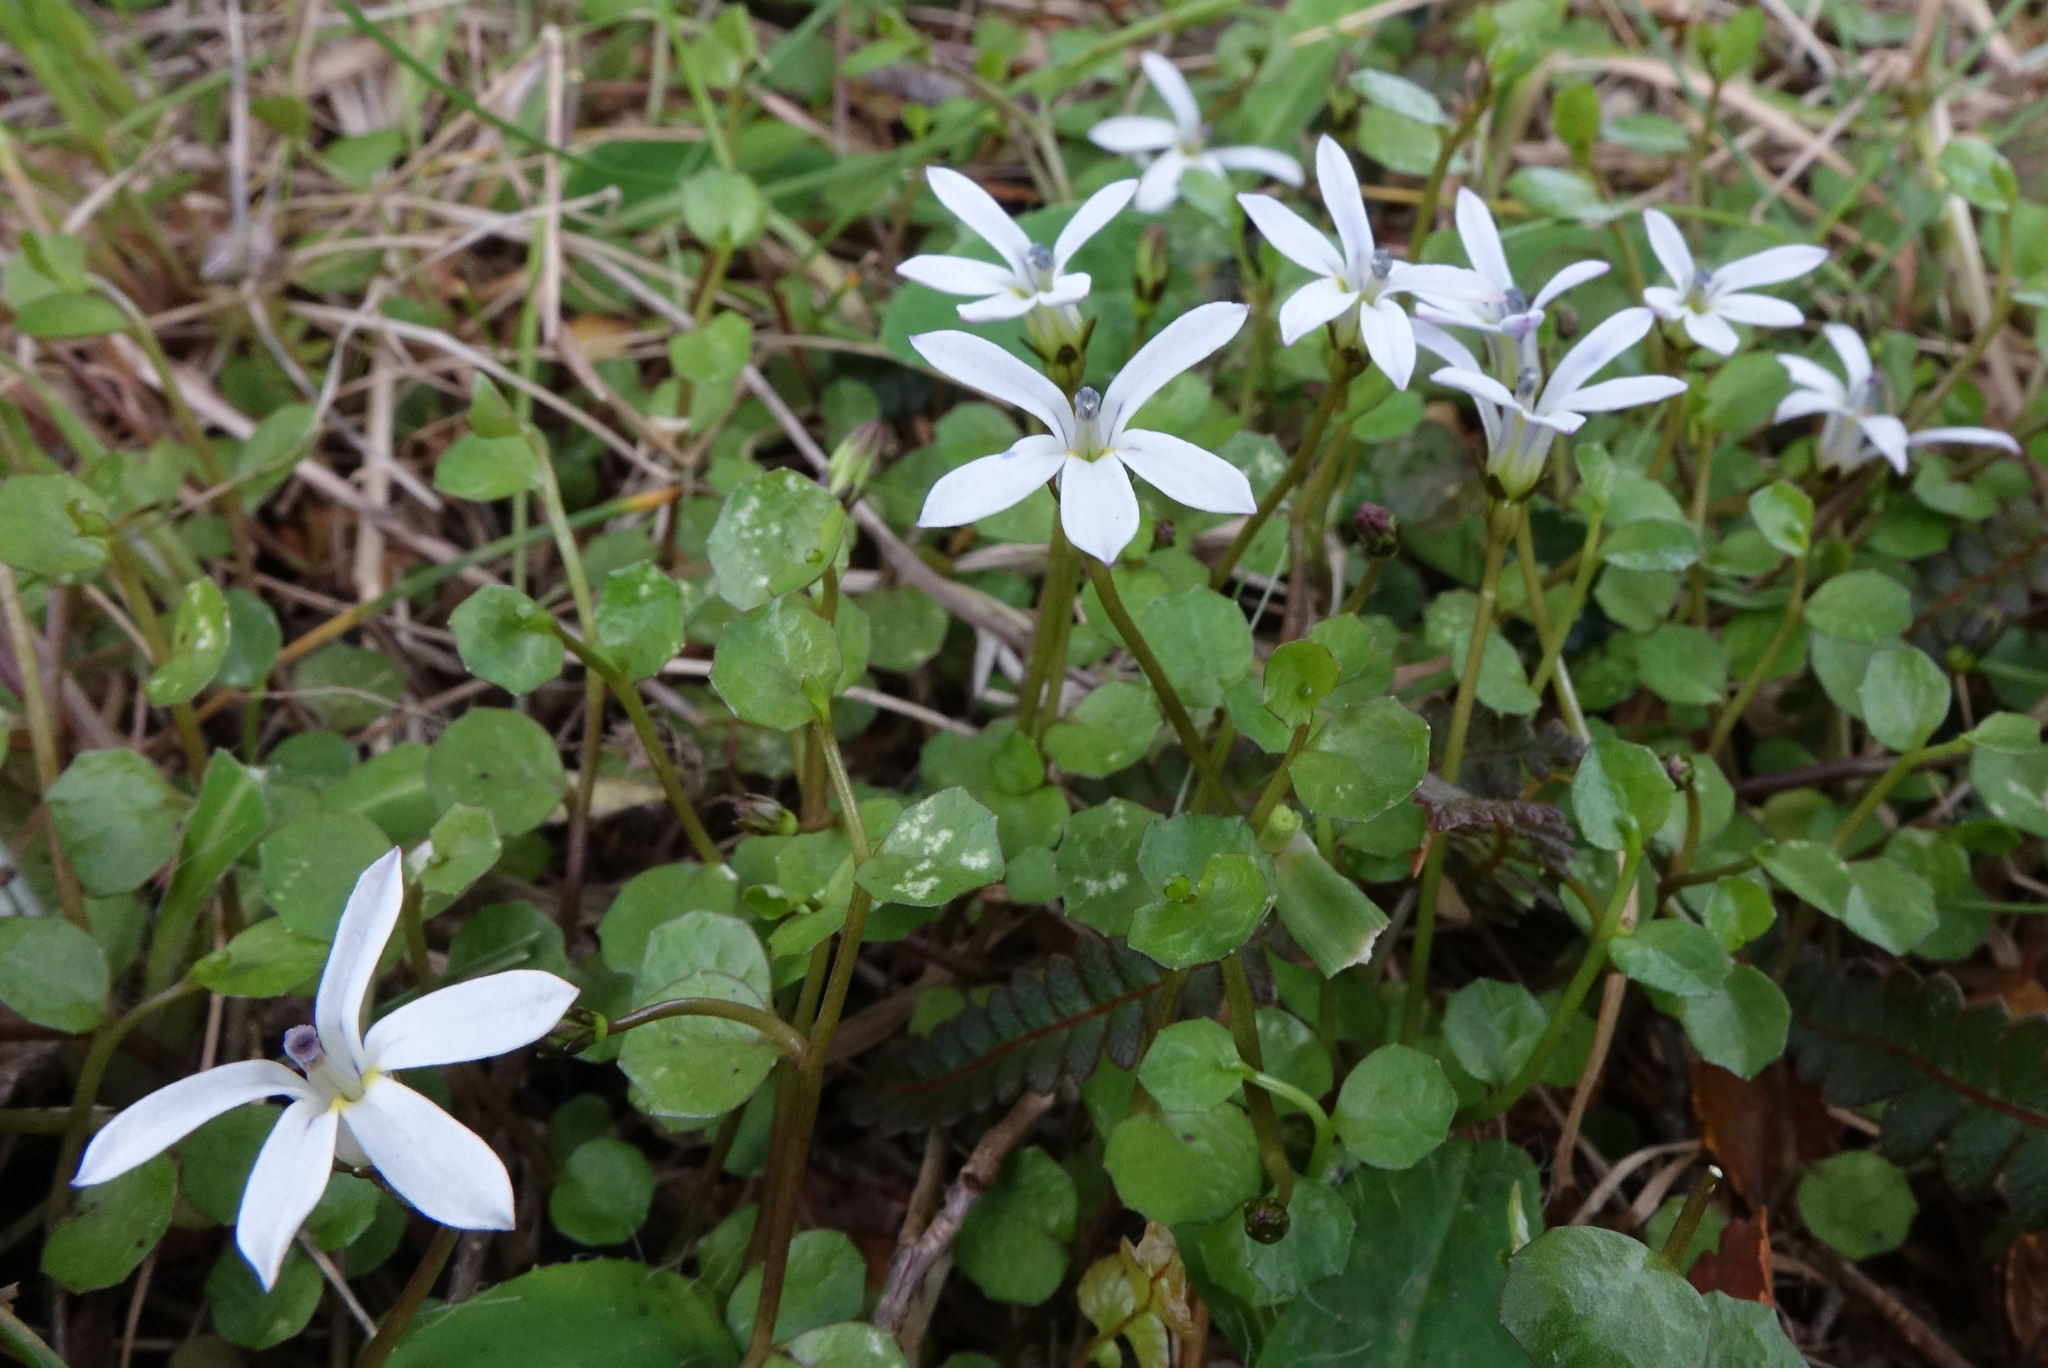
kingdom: Plantae
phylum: Tracheophyta
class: Magnoliopsida
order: Asterales
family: Campanulaceae
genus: Lobelia
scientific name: Lobelia angulata
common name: Lawn lobelia
